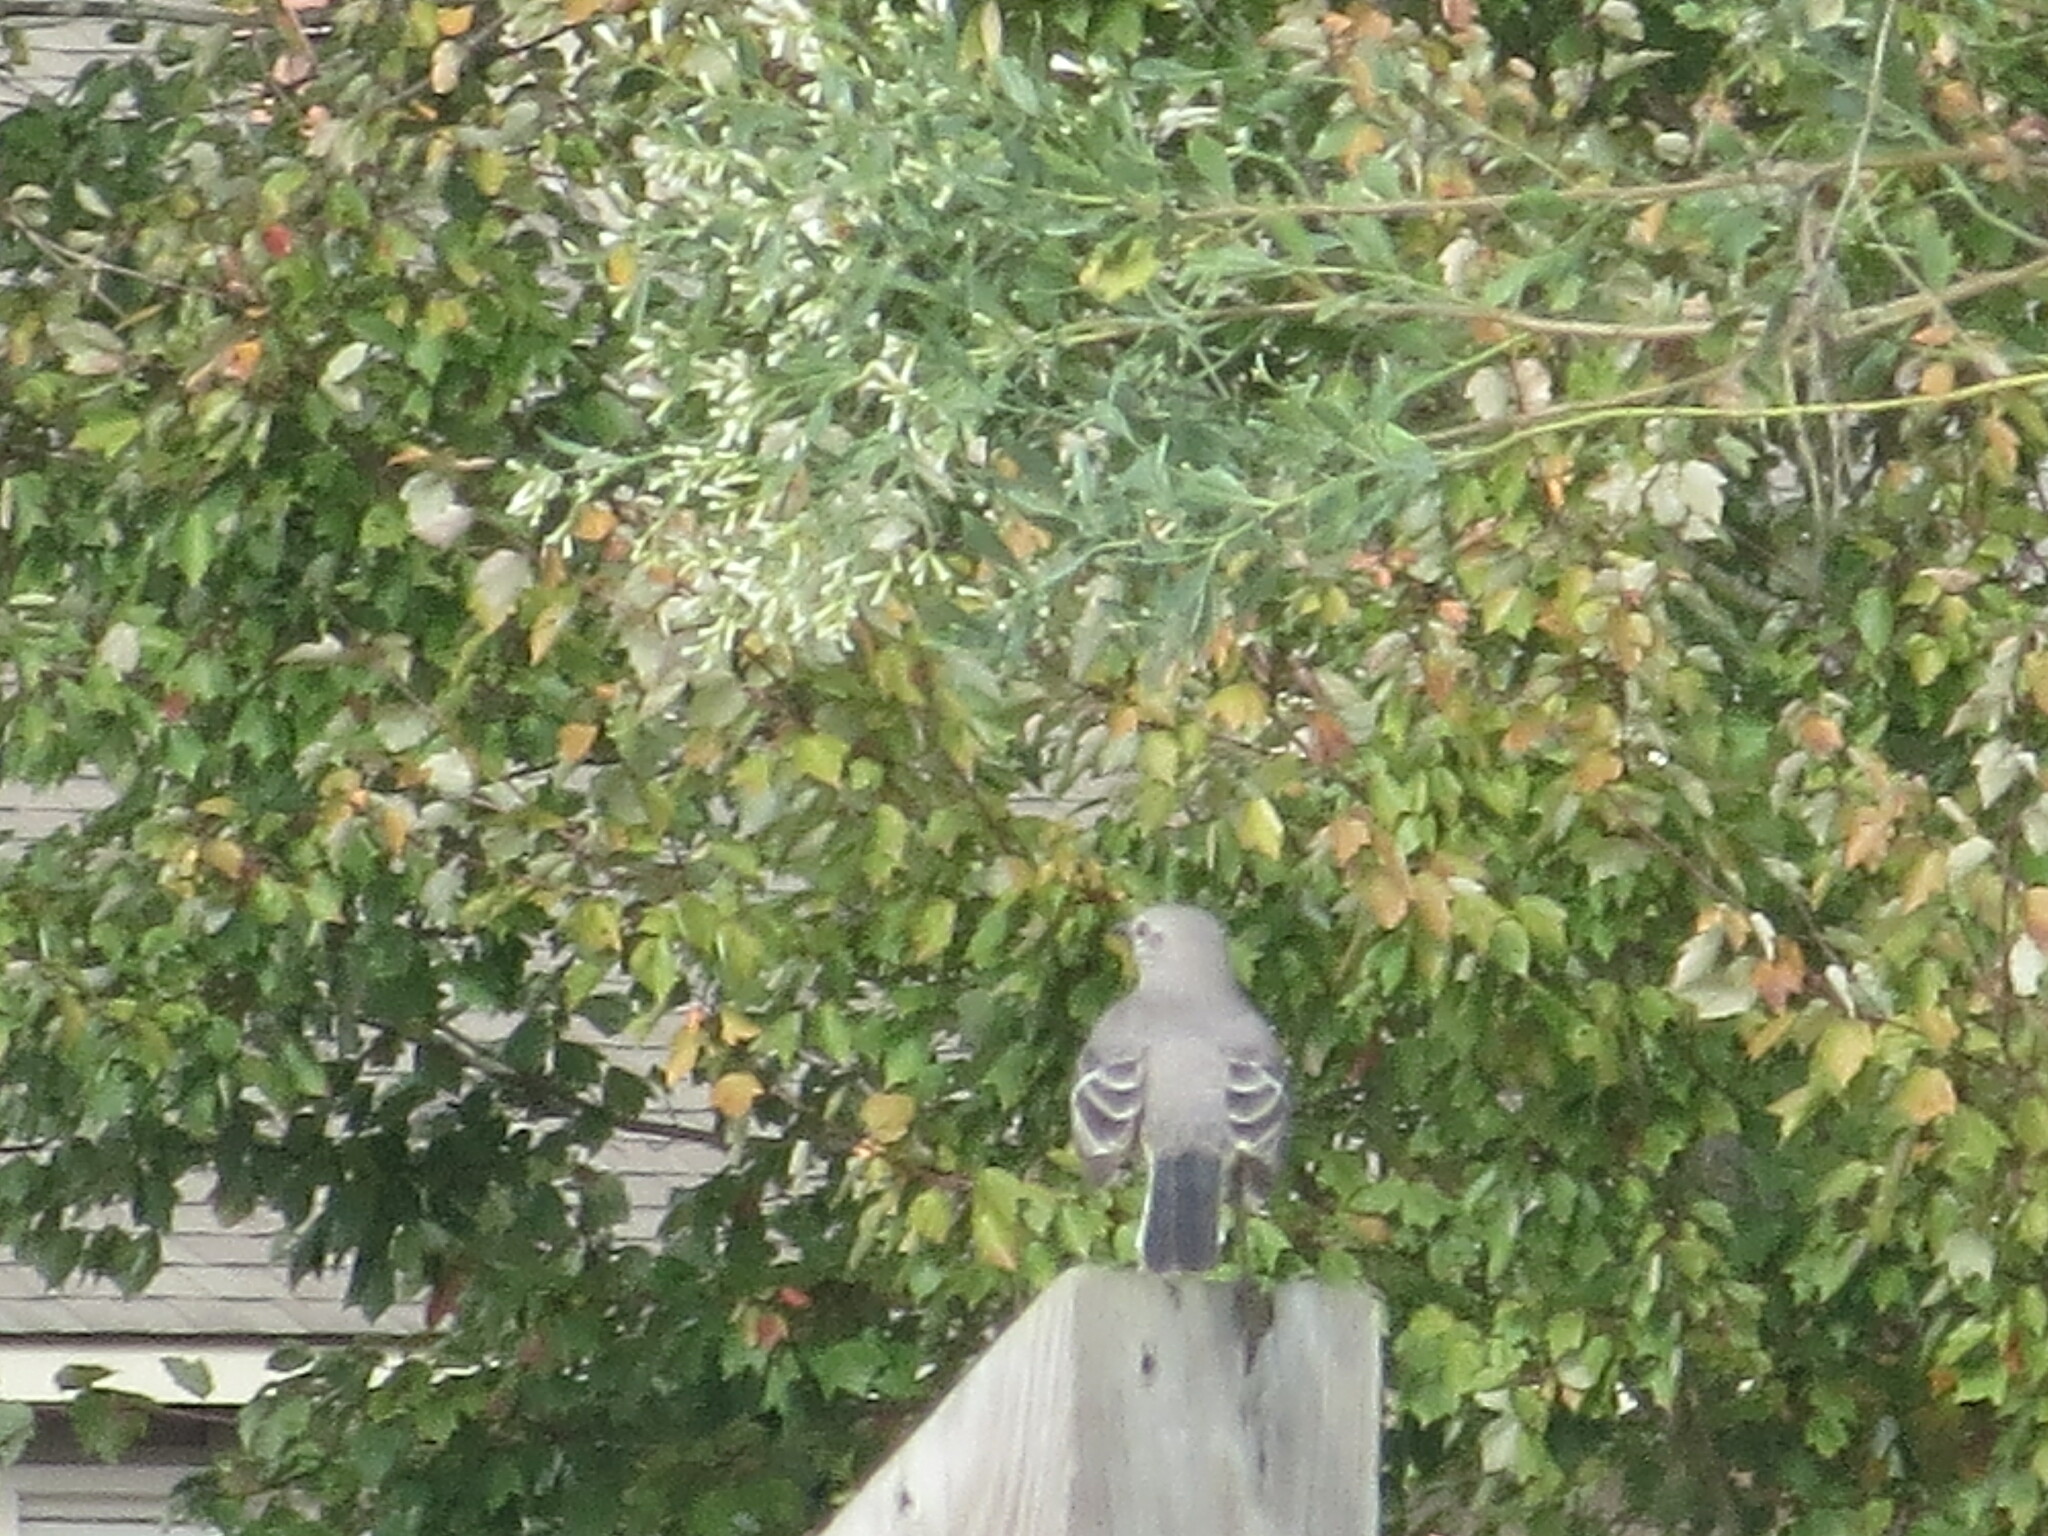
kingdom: Animalia
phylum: Chordata
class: Aves
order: Passeriformes
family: Mimidae
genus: Mimus
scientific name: Mimus polyglottos
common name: Northern mockingbird
